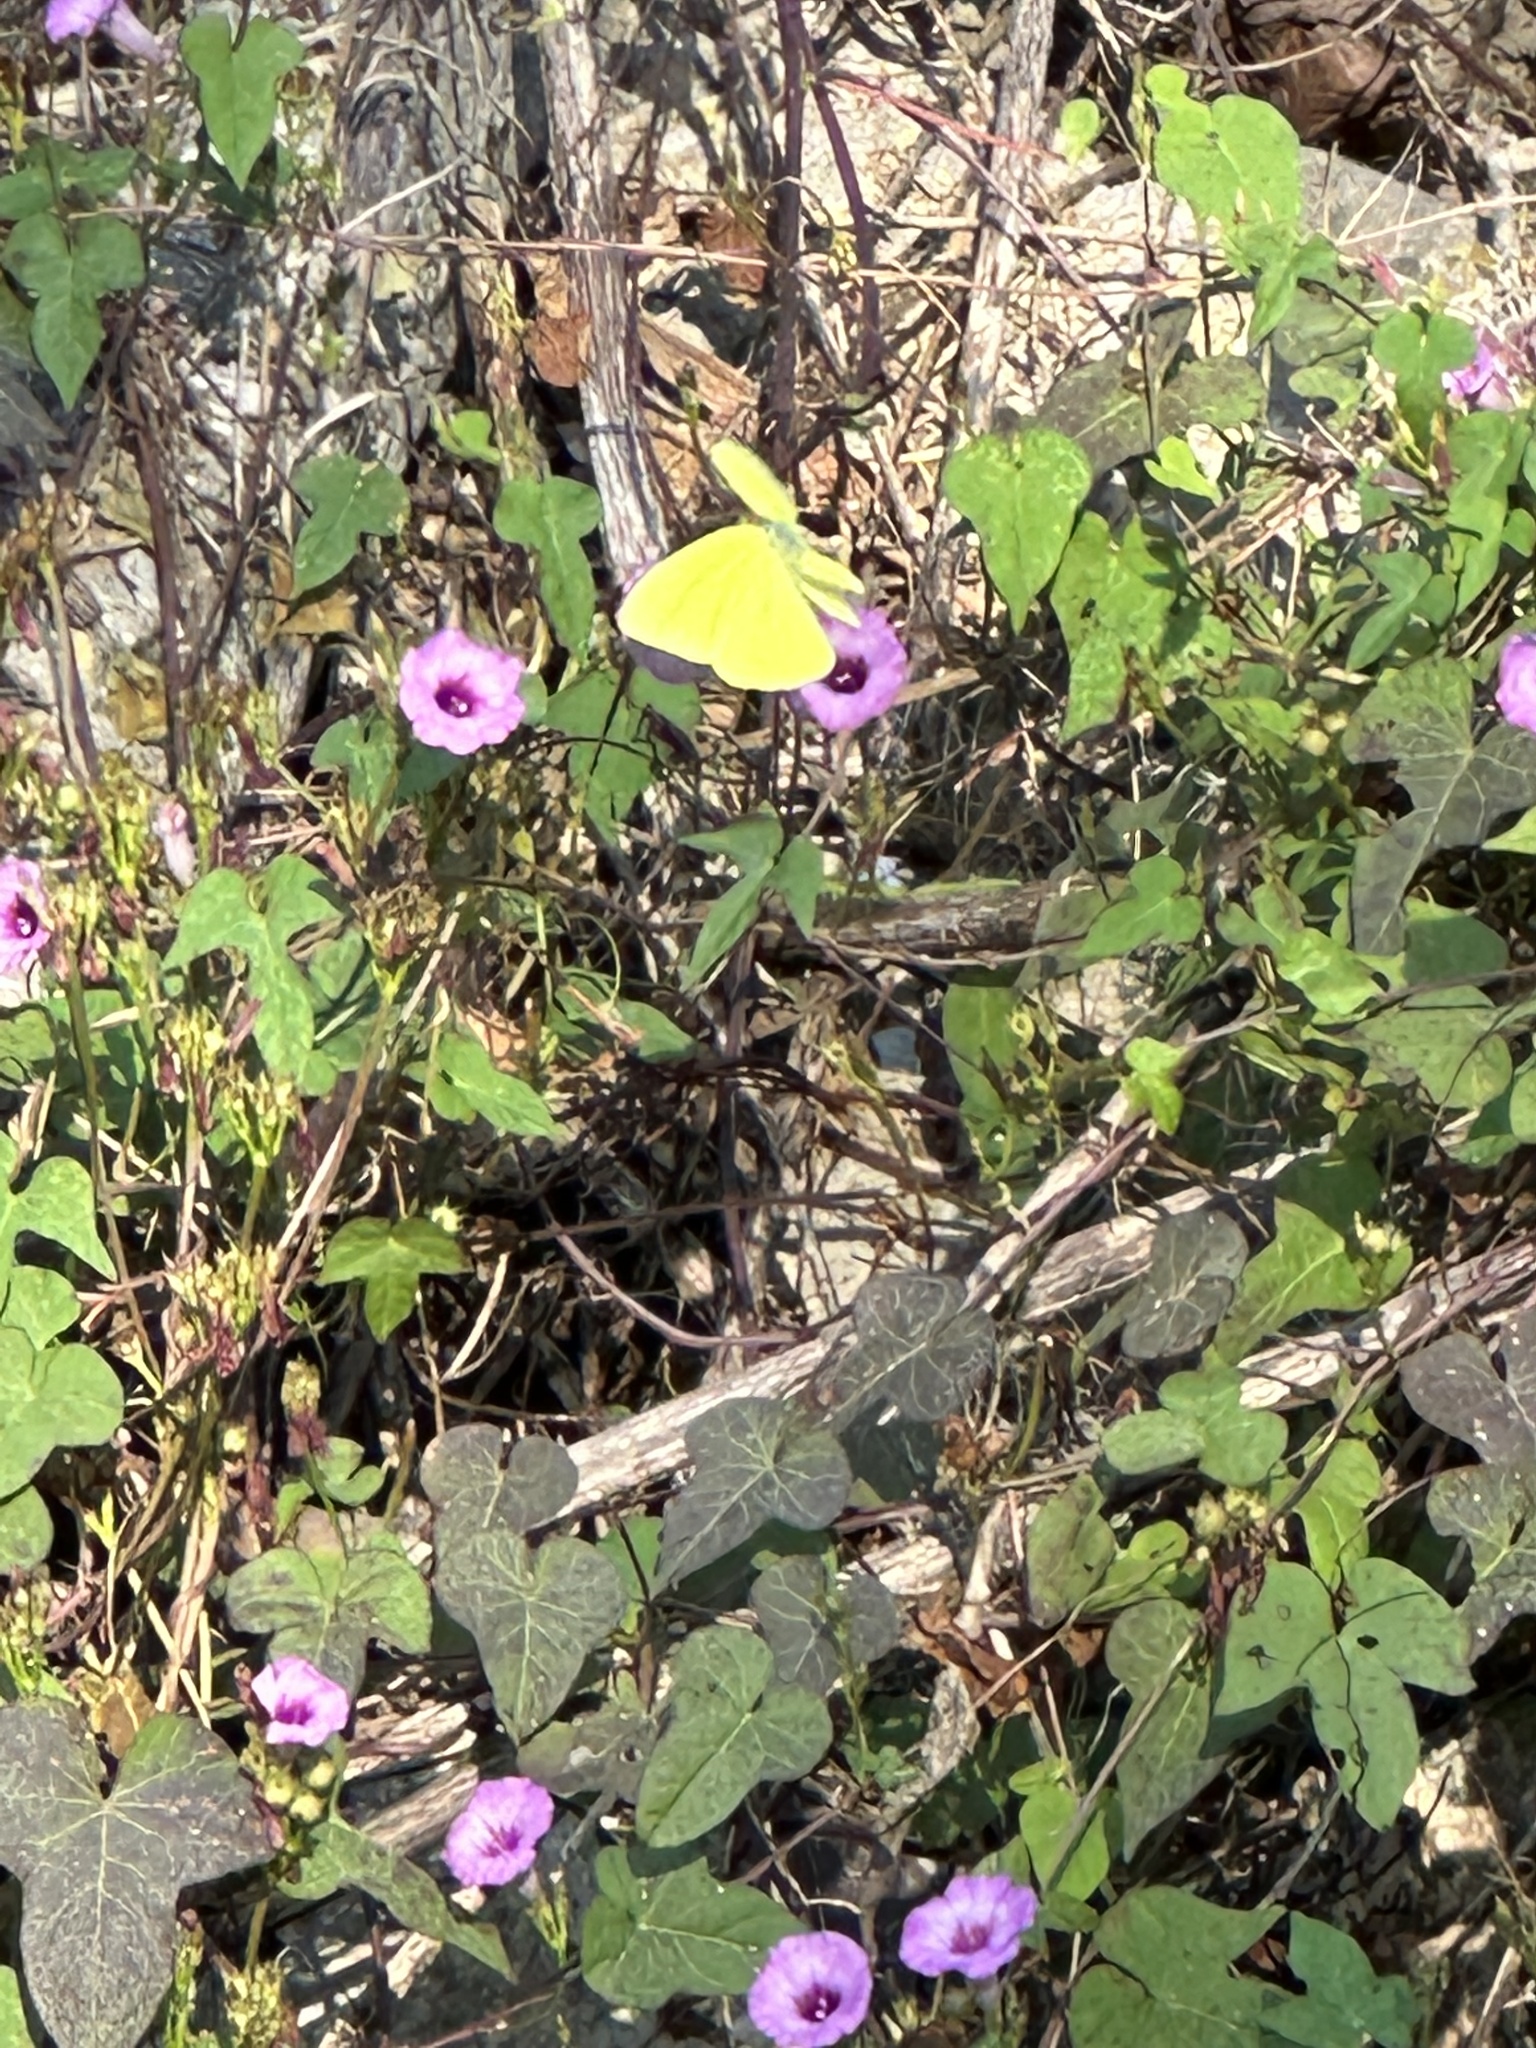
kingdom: Animalia
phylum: Arthropoda
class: Insecta
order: Lepidoptera
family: Pieridae
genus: Phoebis
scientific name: Phoebis sennae
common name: Cloudless sulphur
